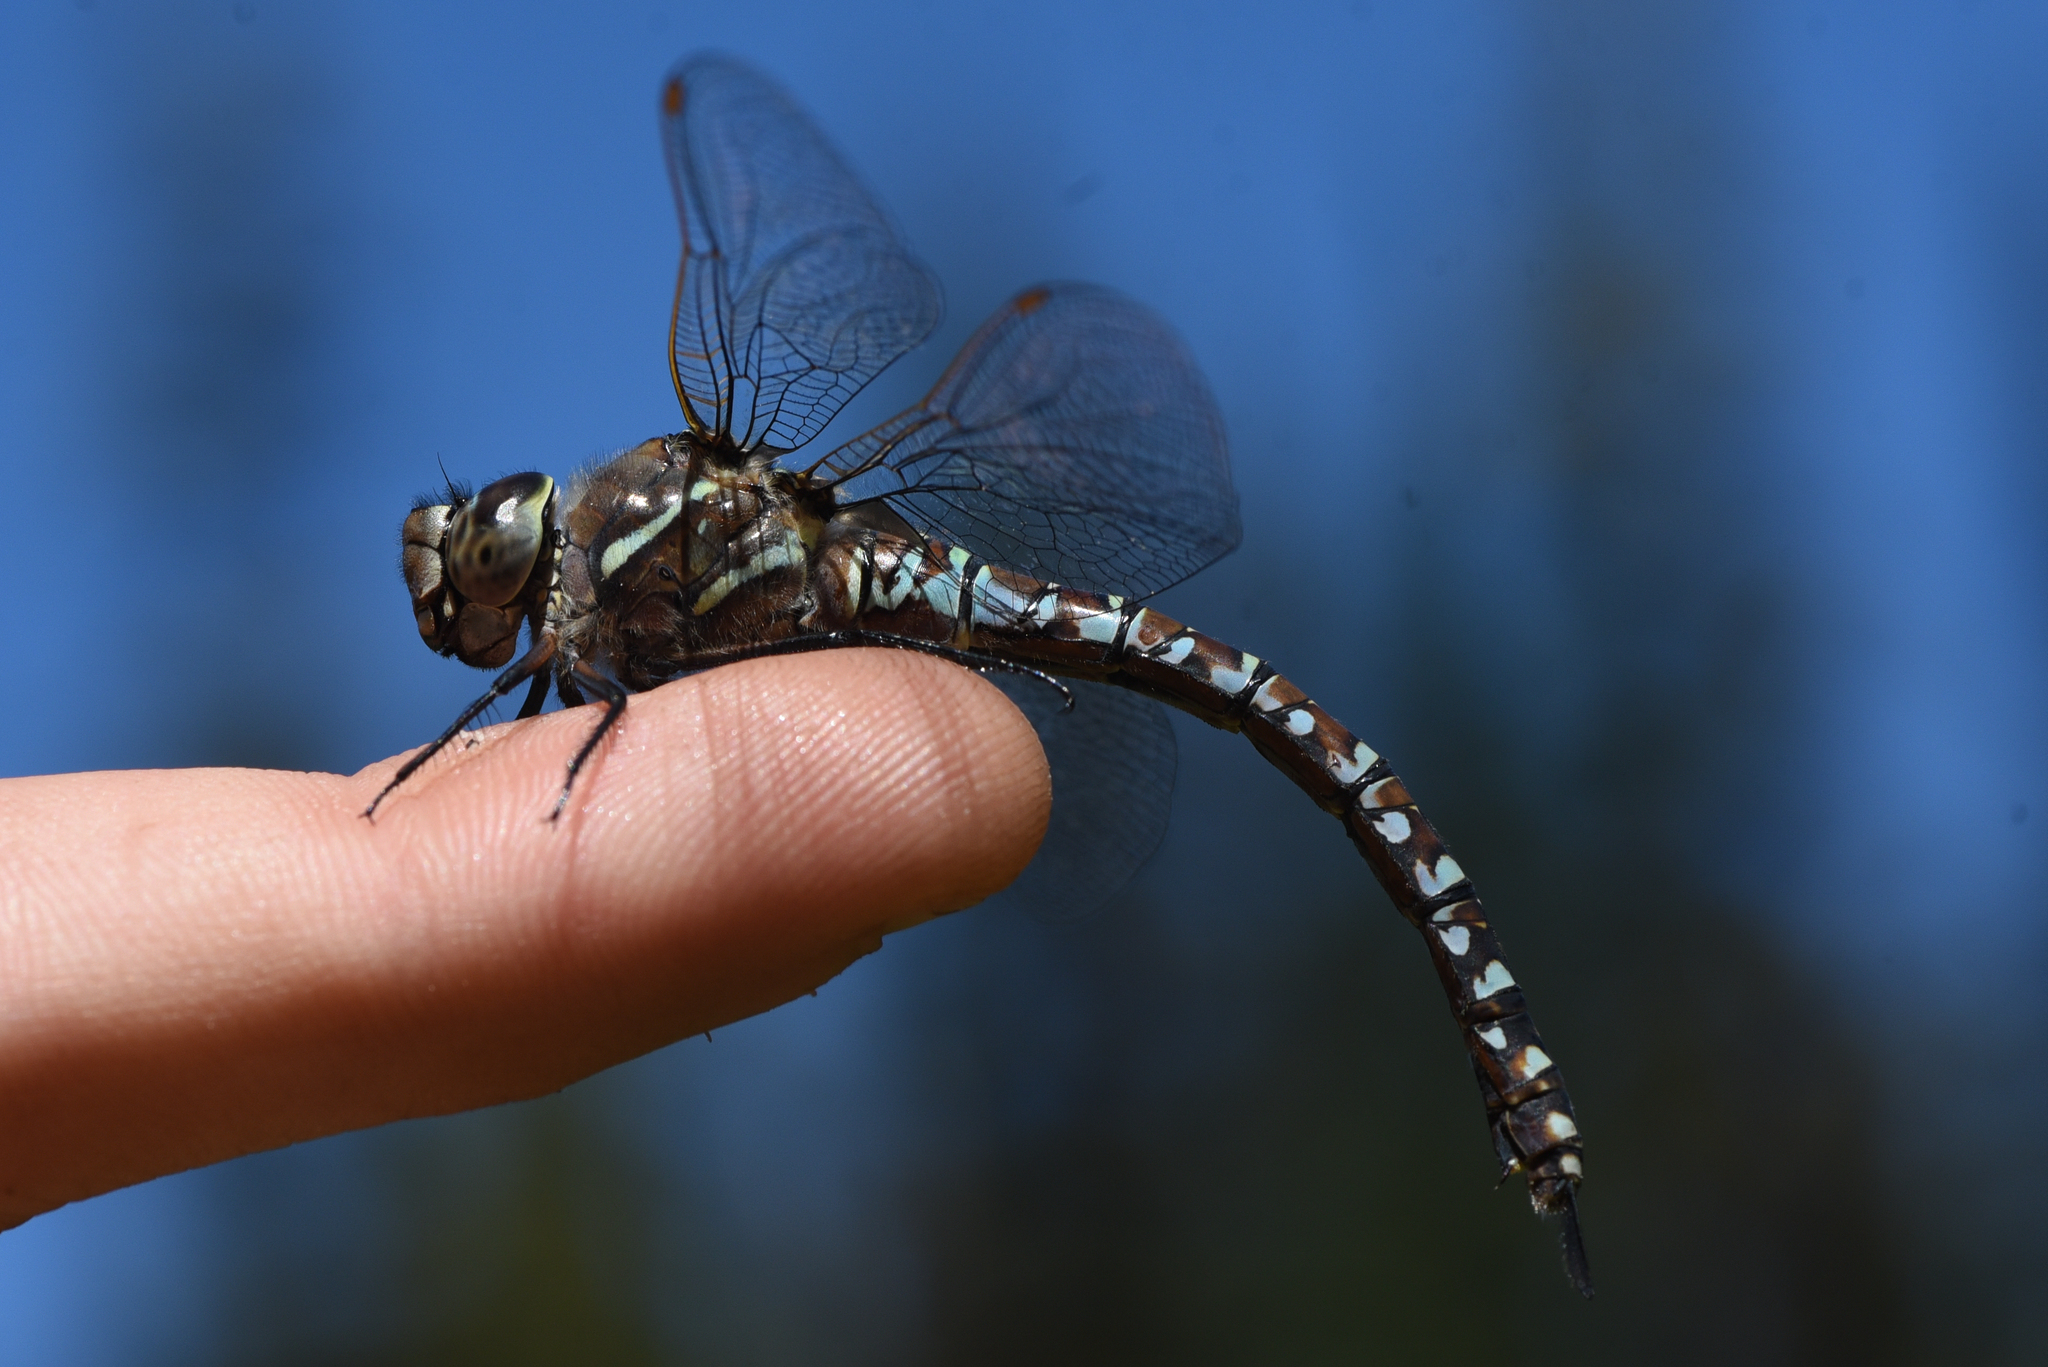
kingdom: Animalia
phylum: Arthropoda
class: Insecta
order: Odonata
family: Aeshnidae
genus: Aeshna
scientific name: Aeshna interrupta
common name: Variable darner
